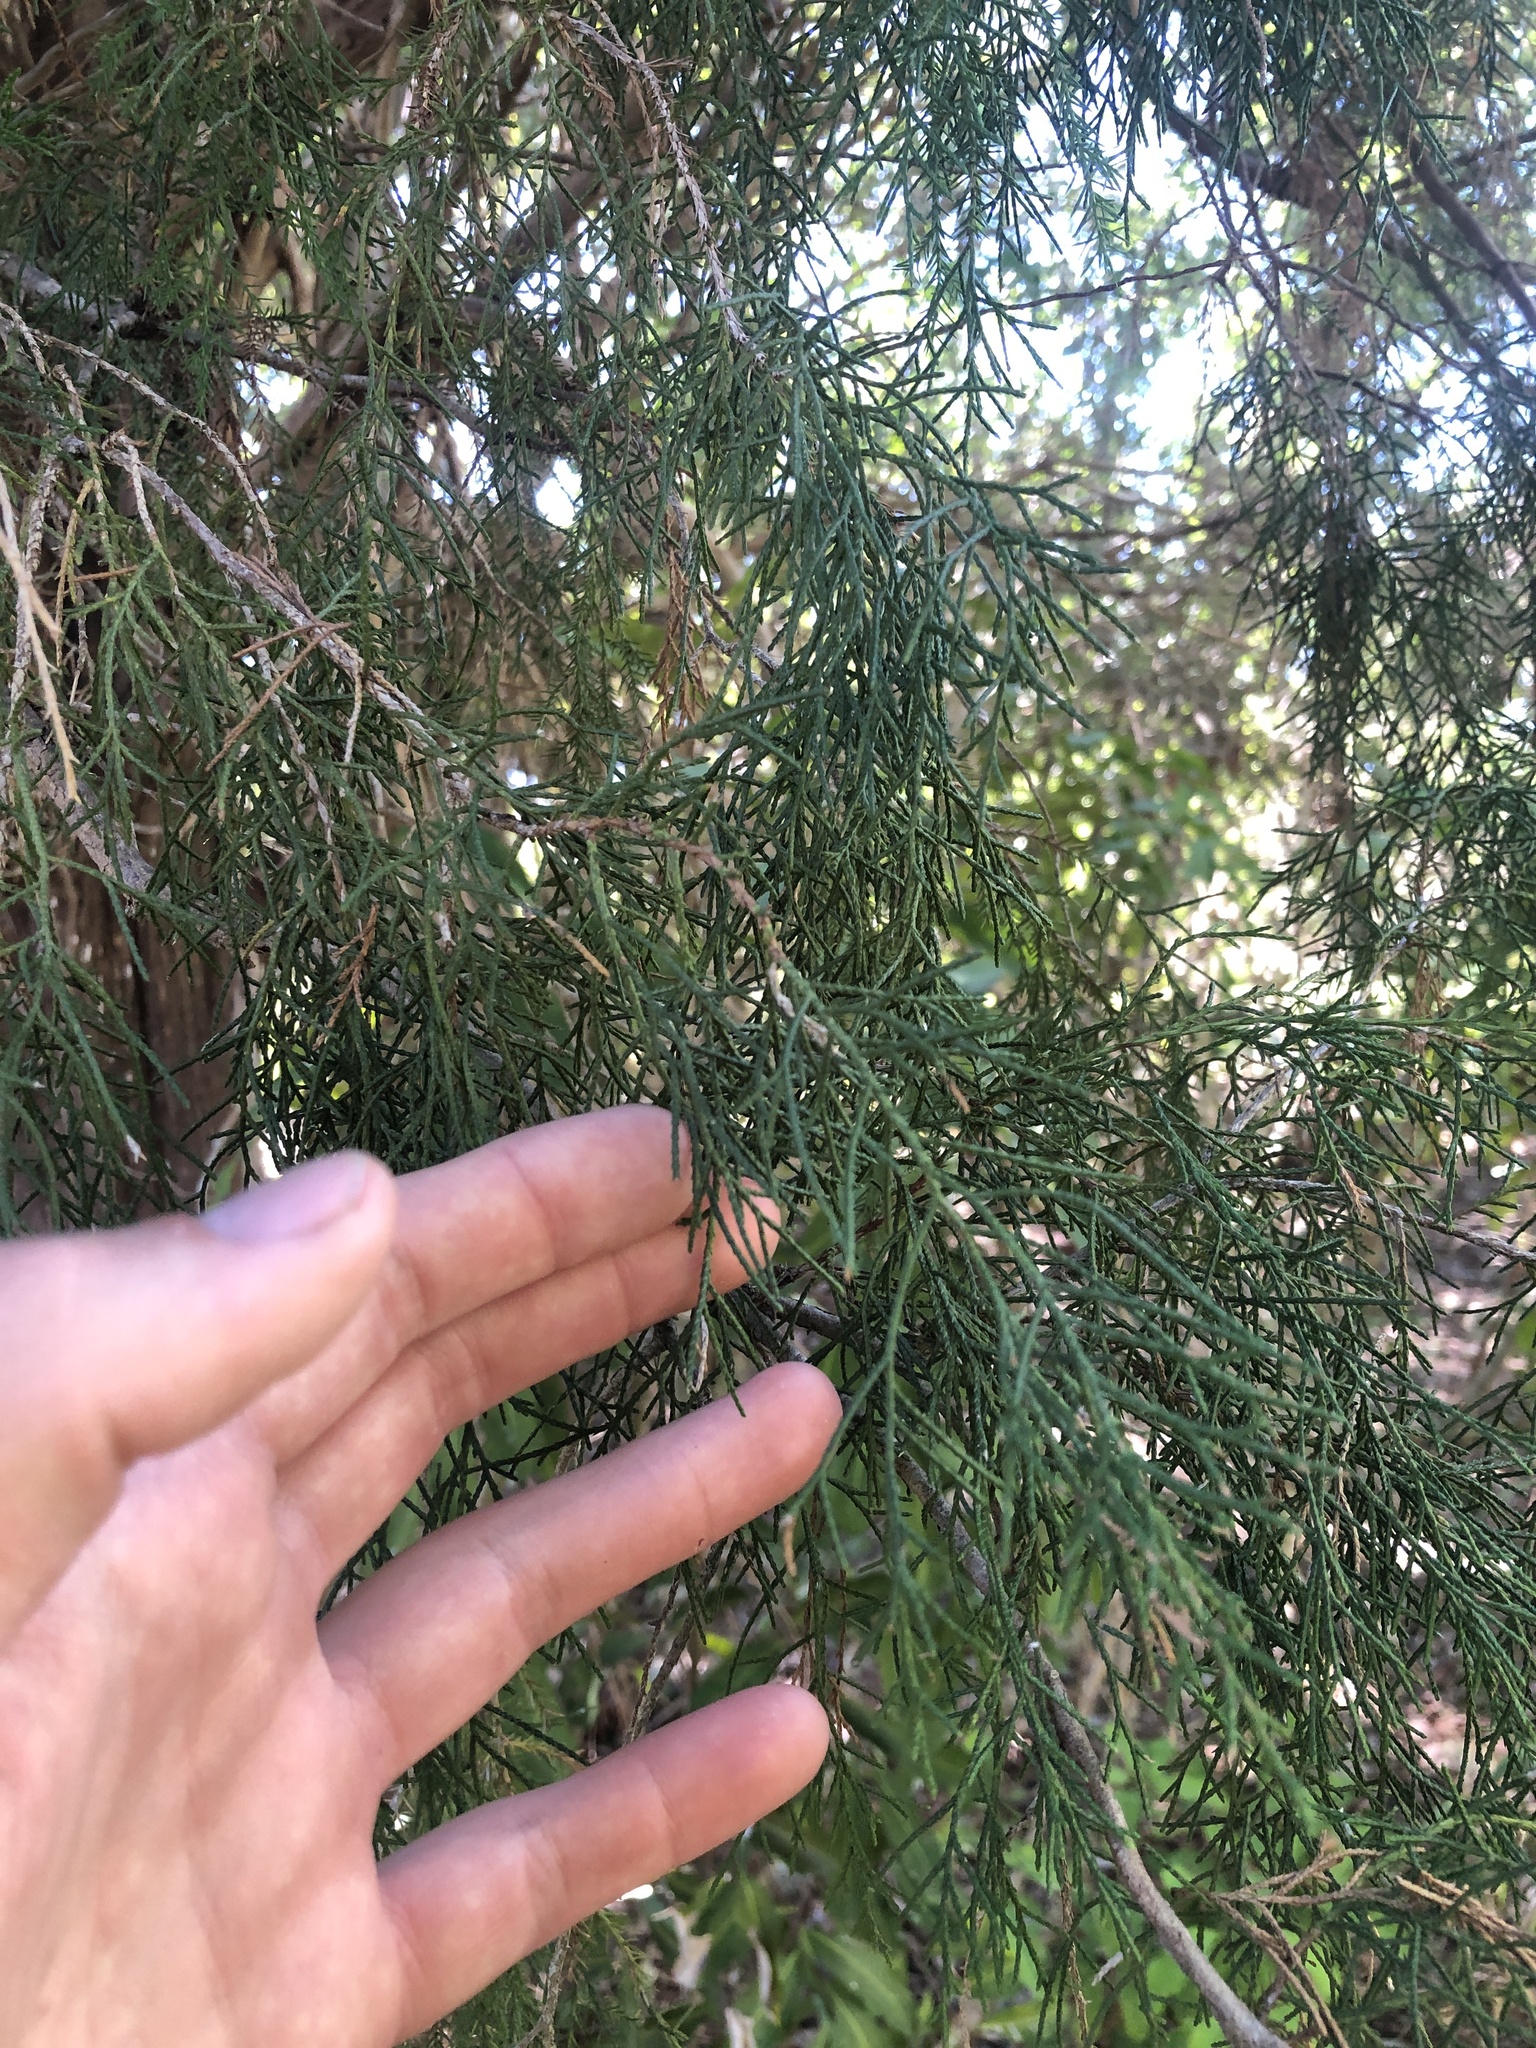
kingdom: Plantae
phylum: Tracheophyta
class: Pinopsida
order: Pinales
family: Cupressaceae
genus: Juniperus
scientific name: Juniperus virginiana
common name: Red juniper
